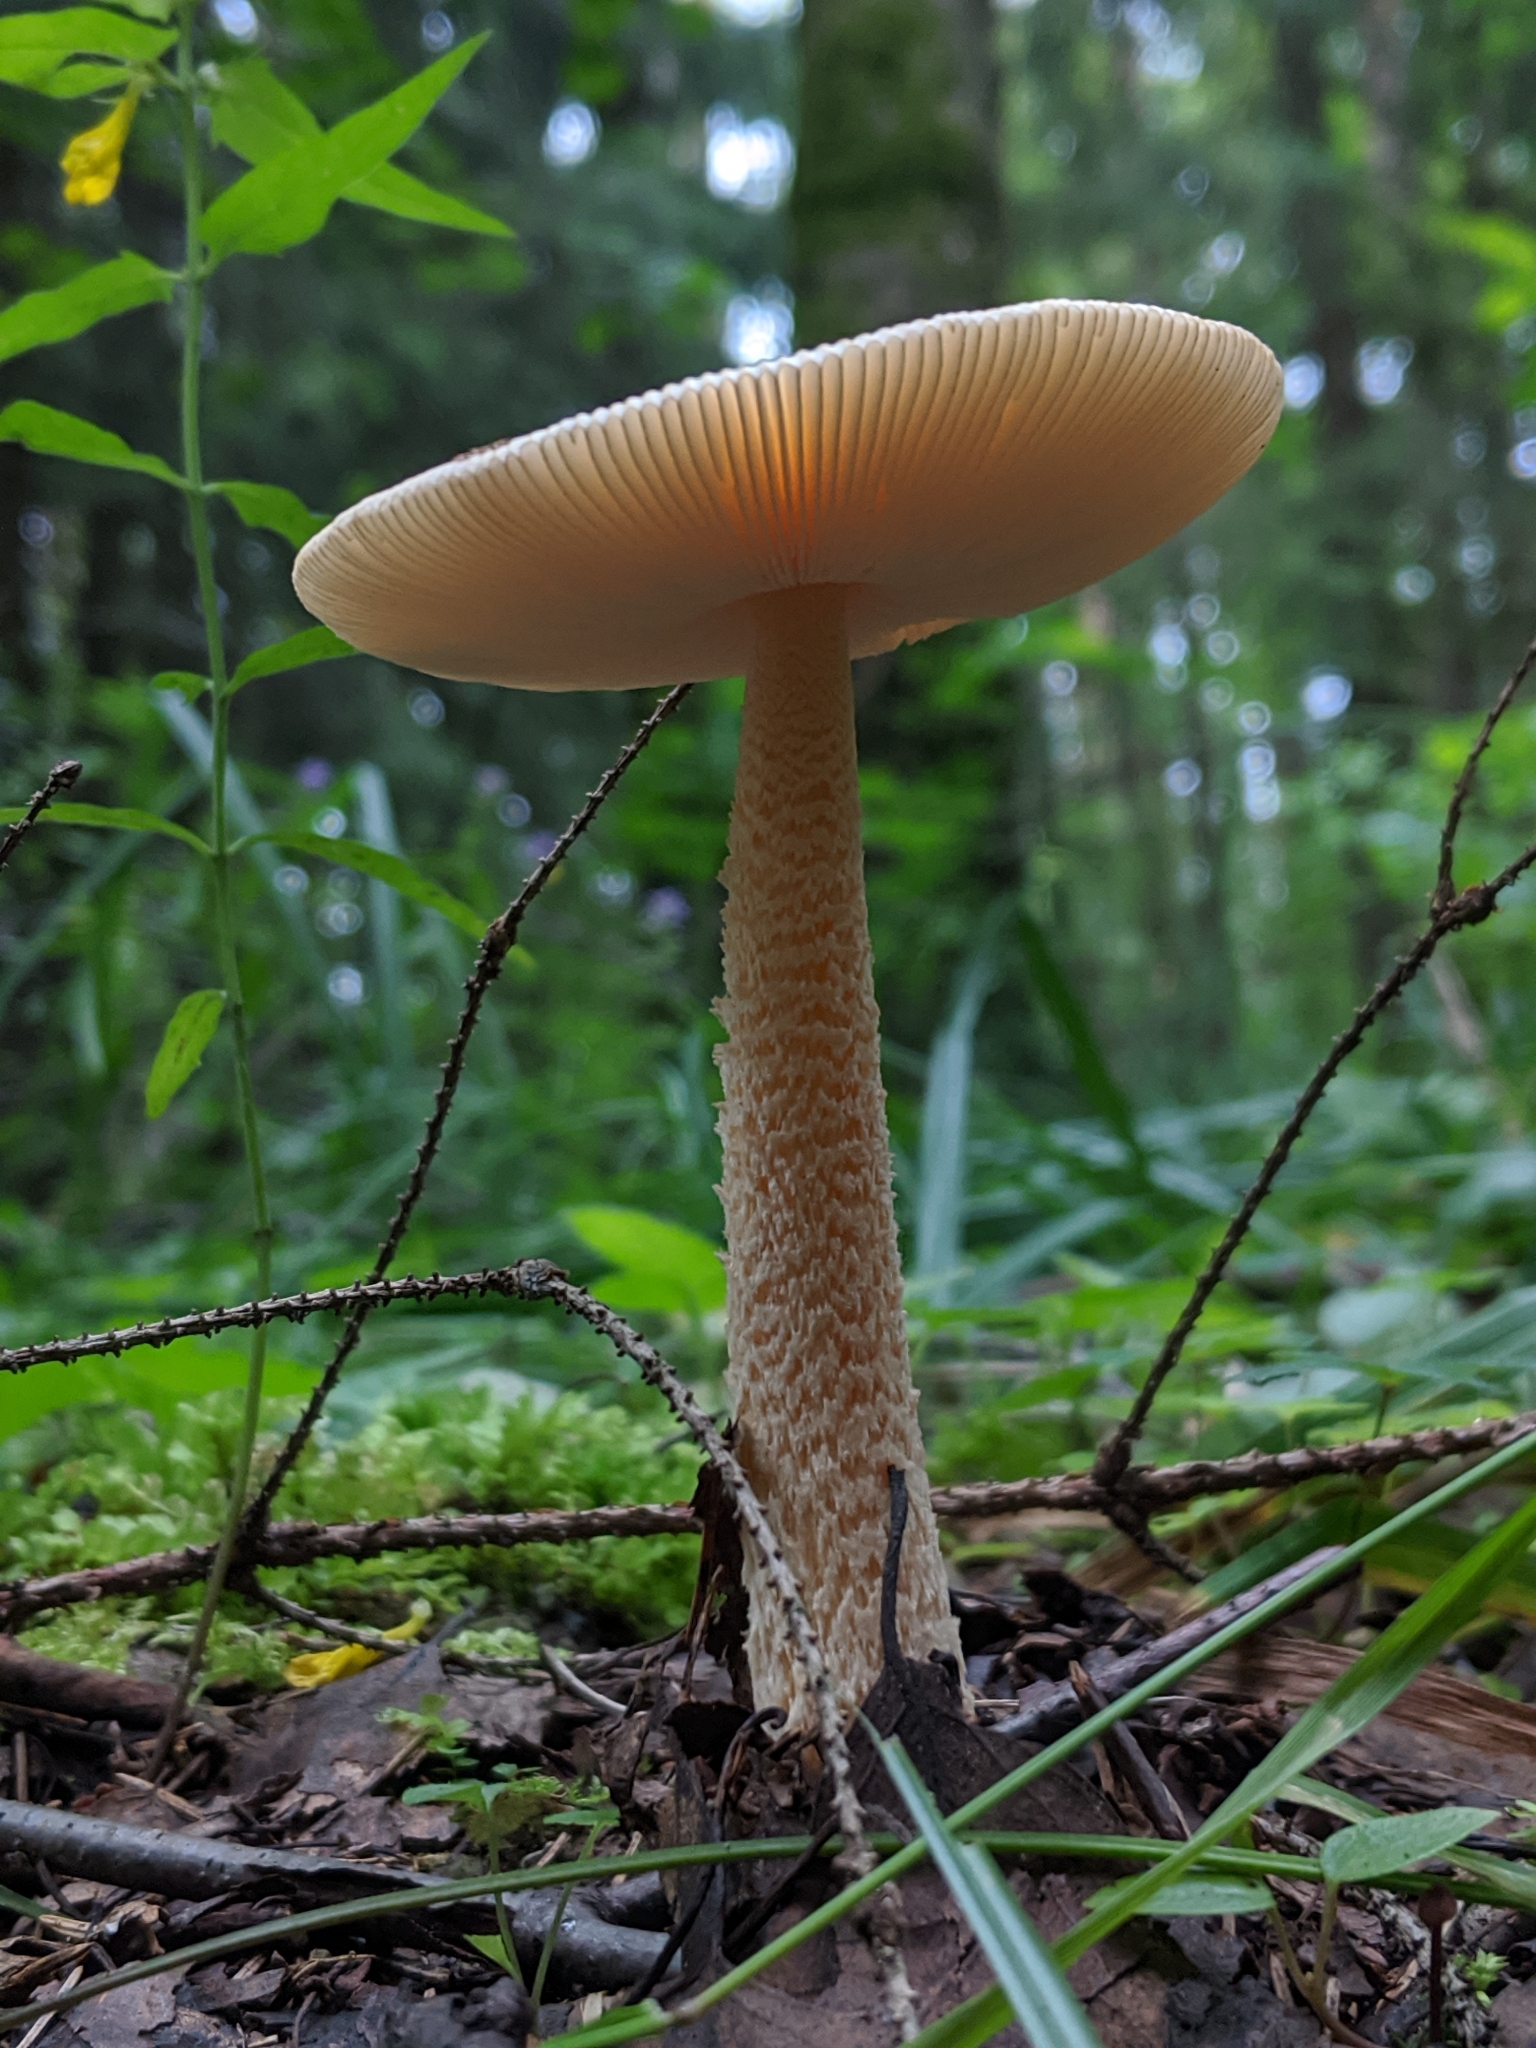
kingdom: Fungi
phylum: Basidiomycota
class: Agaricomycetes
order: Agaricales
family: Amanitaceae
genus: Amanita
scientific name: Amanita crocea
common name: Orange grisette
